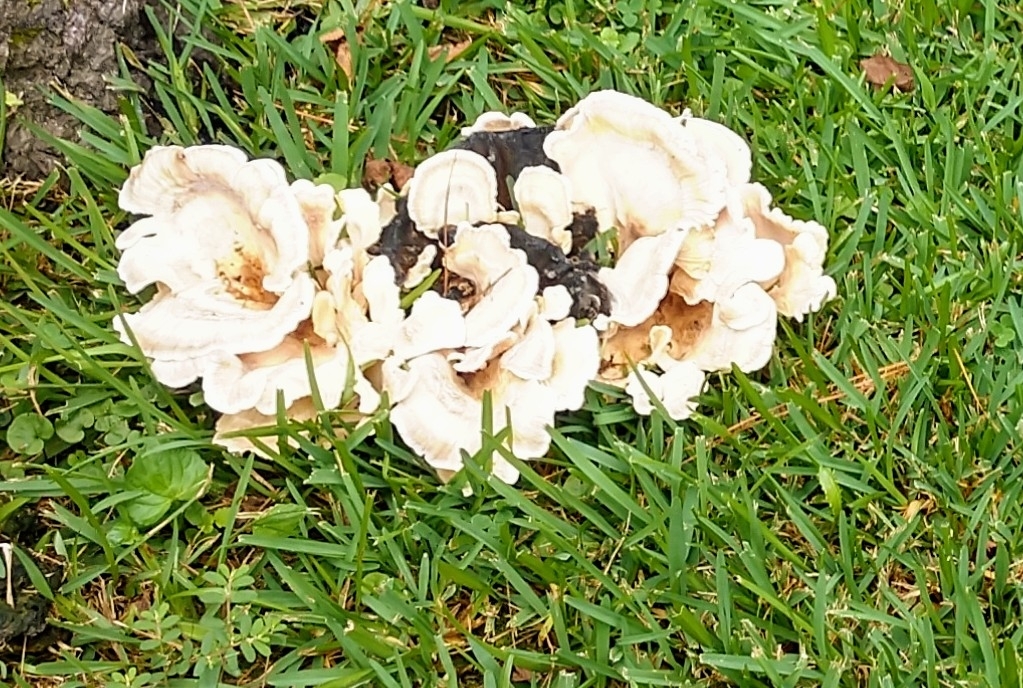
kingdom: Fungi
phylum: Basidiomycota
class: Agaricomycetes
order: Polyporales
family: Podoscyphaceae
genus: Abortiporus
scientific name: Abortiporus biennis
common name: Blushing rosette
